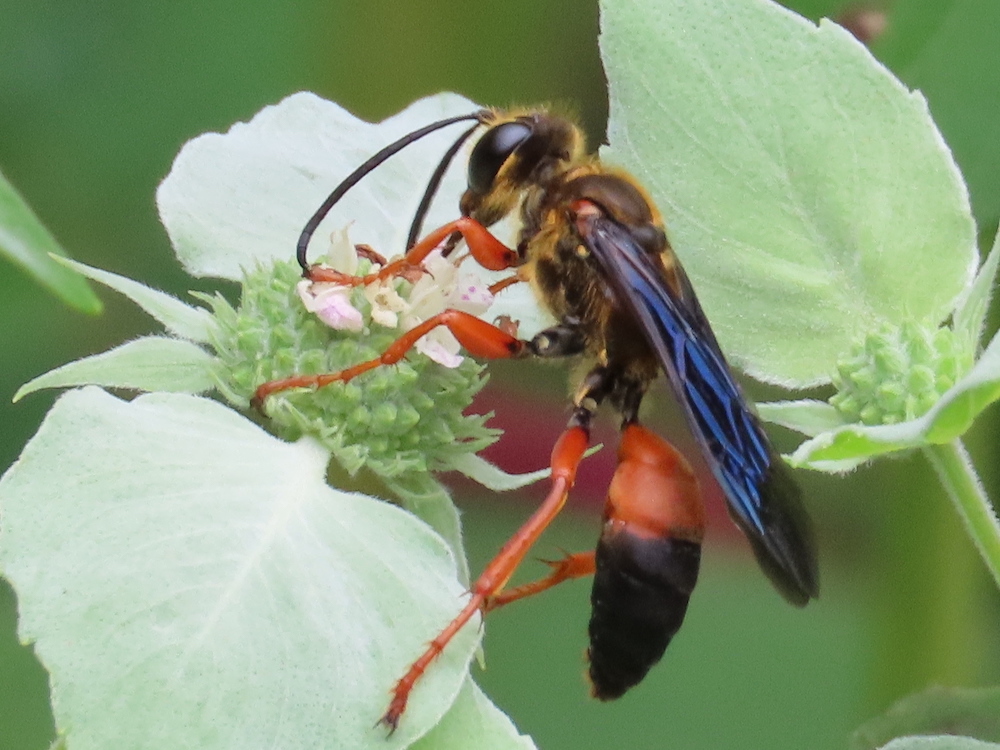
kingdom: Animalia
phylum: Arthropoda
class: Insecta
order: Hymenoptera
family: Sphecidae
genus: Sphex
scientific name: Sphex ichneumoneus
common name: Great golden digger wasp
